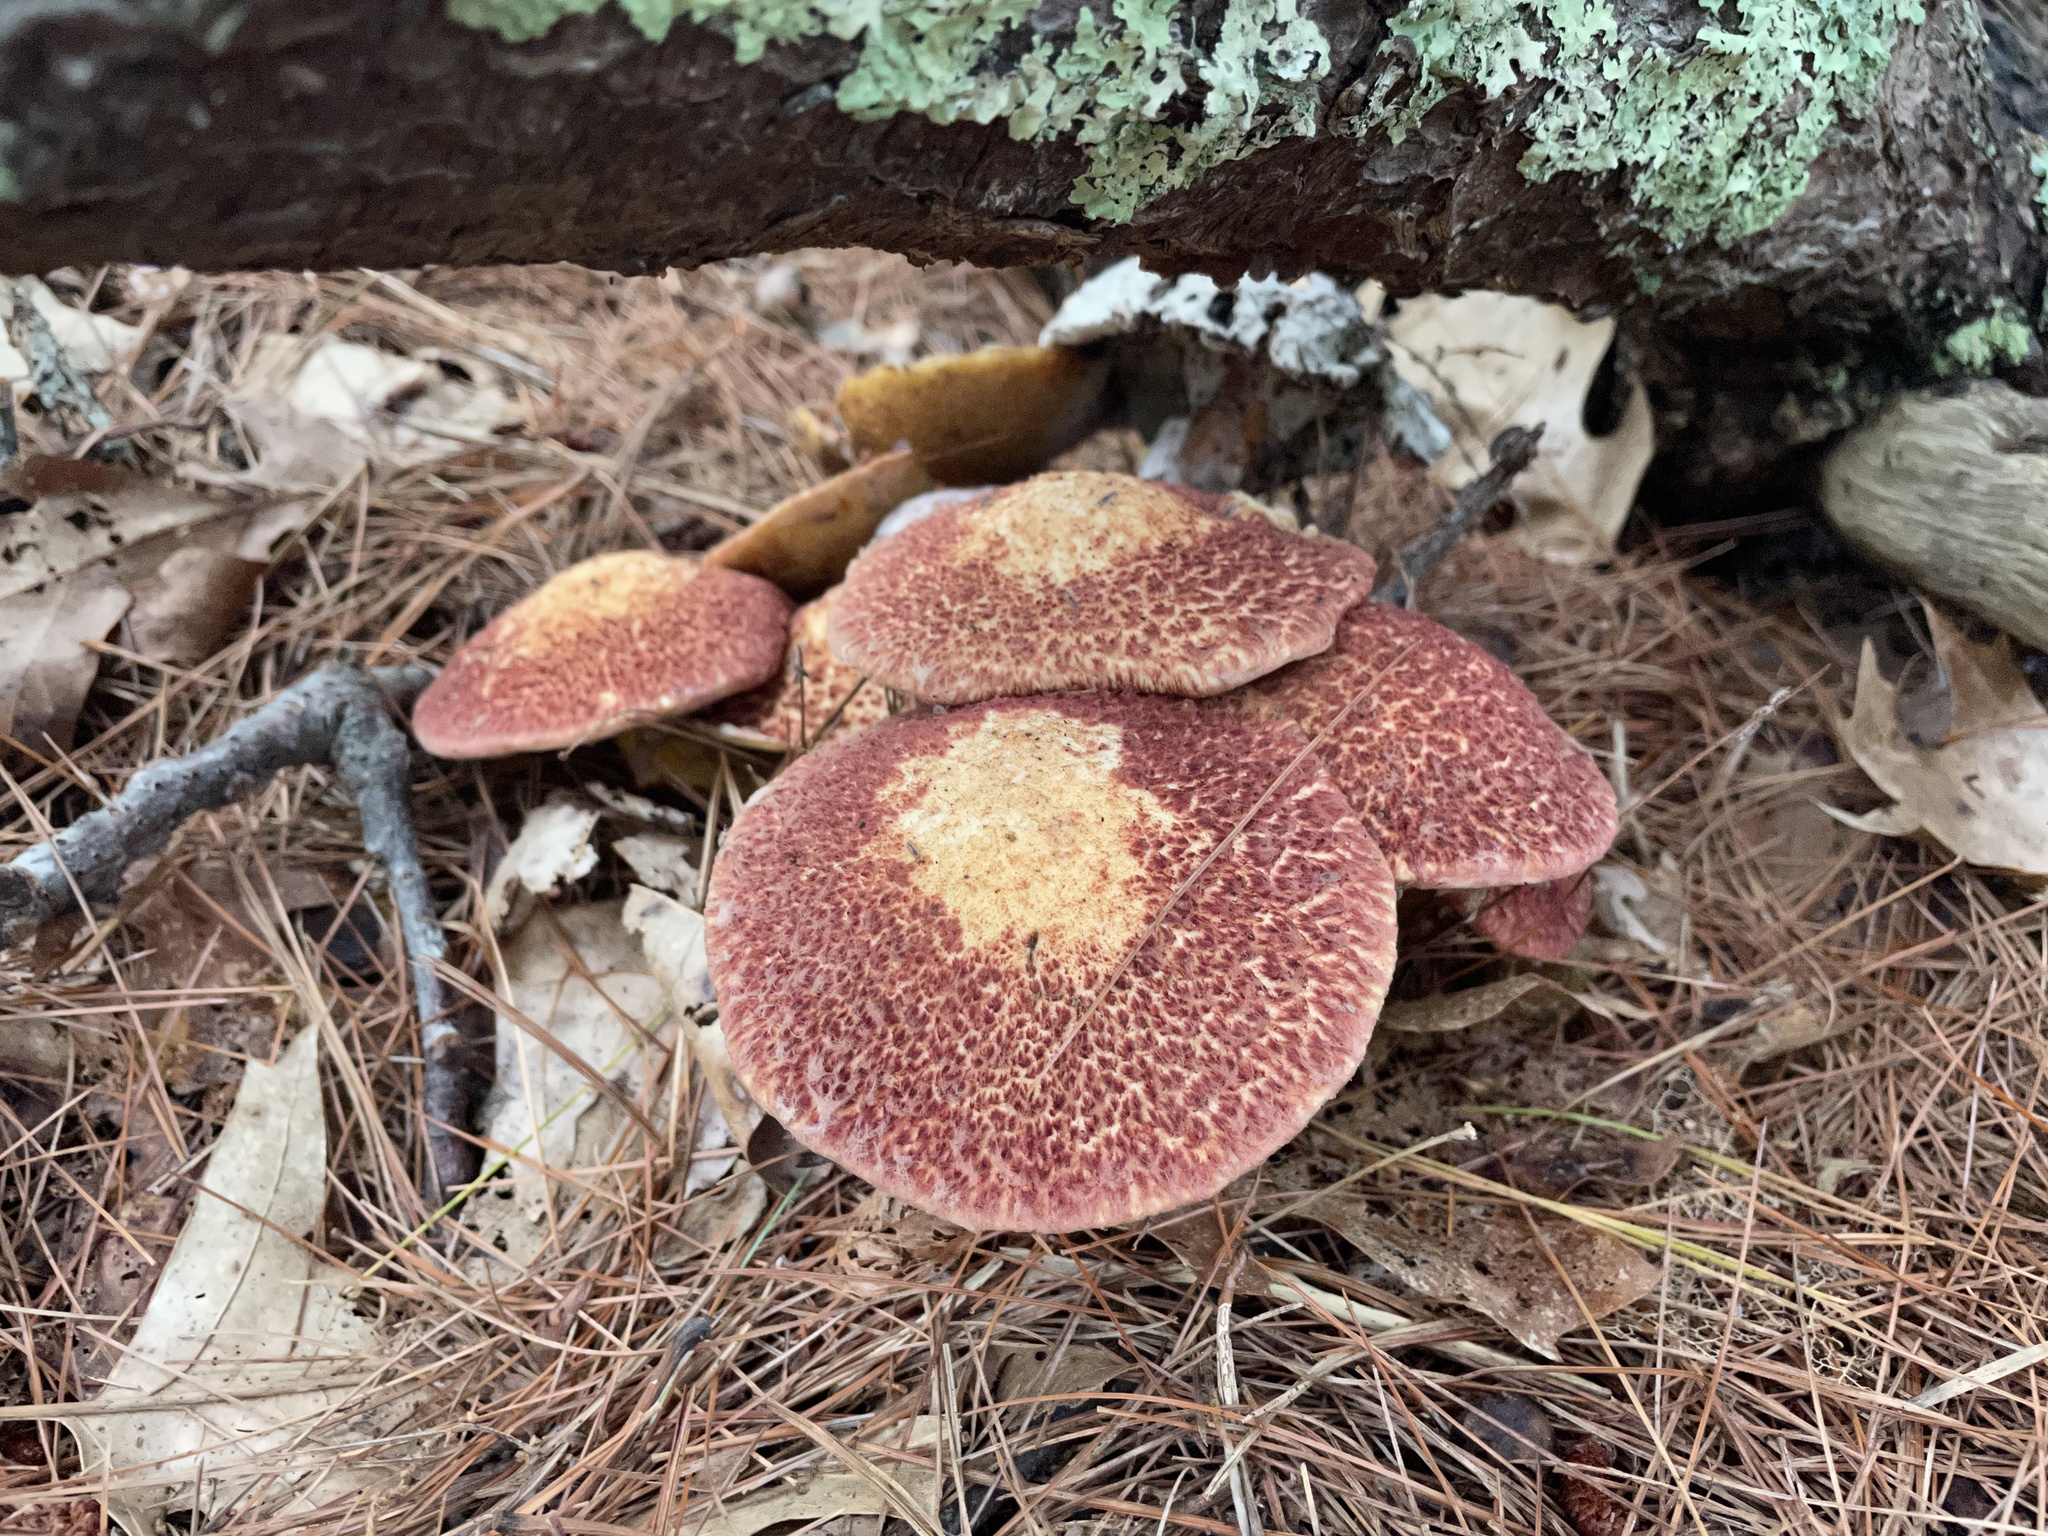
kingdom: Fungi
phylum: Basidiomycota
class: Agaricomycetes
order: Boletales
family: Suillaceae
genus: Suillus
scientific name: Suillus spraguei
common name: Painted suillus
